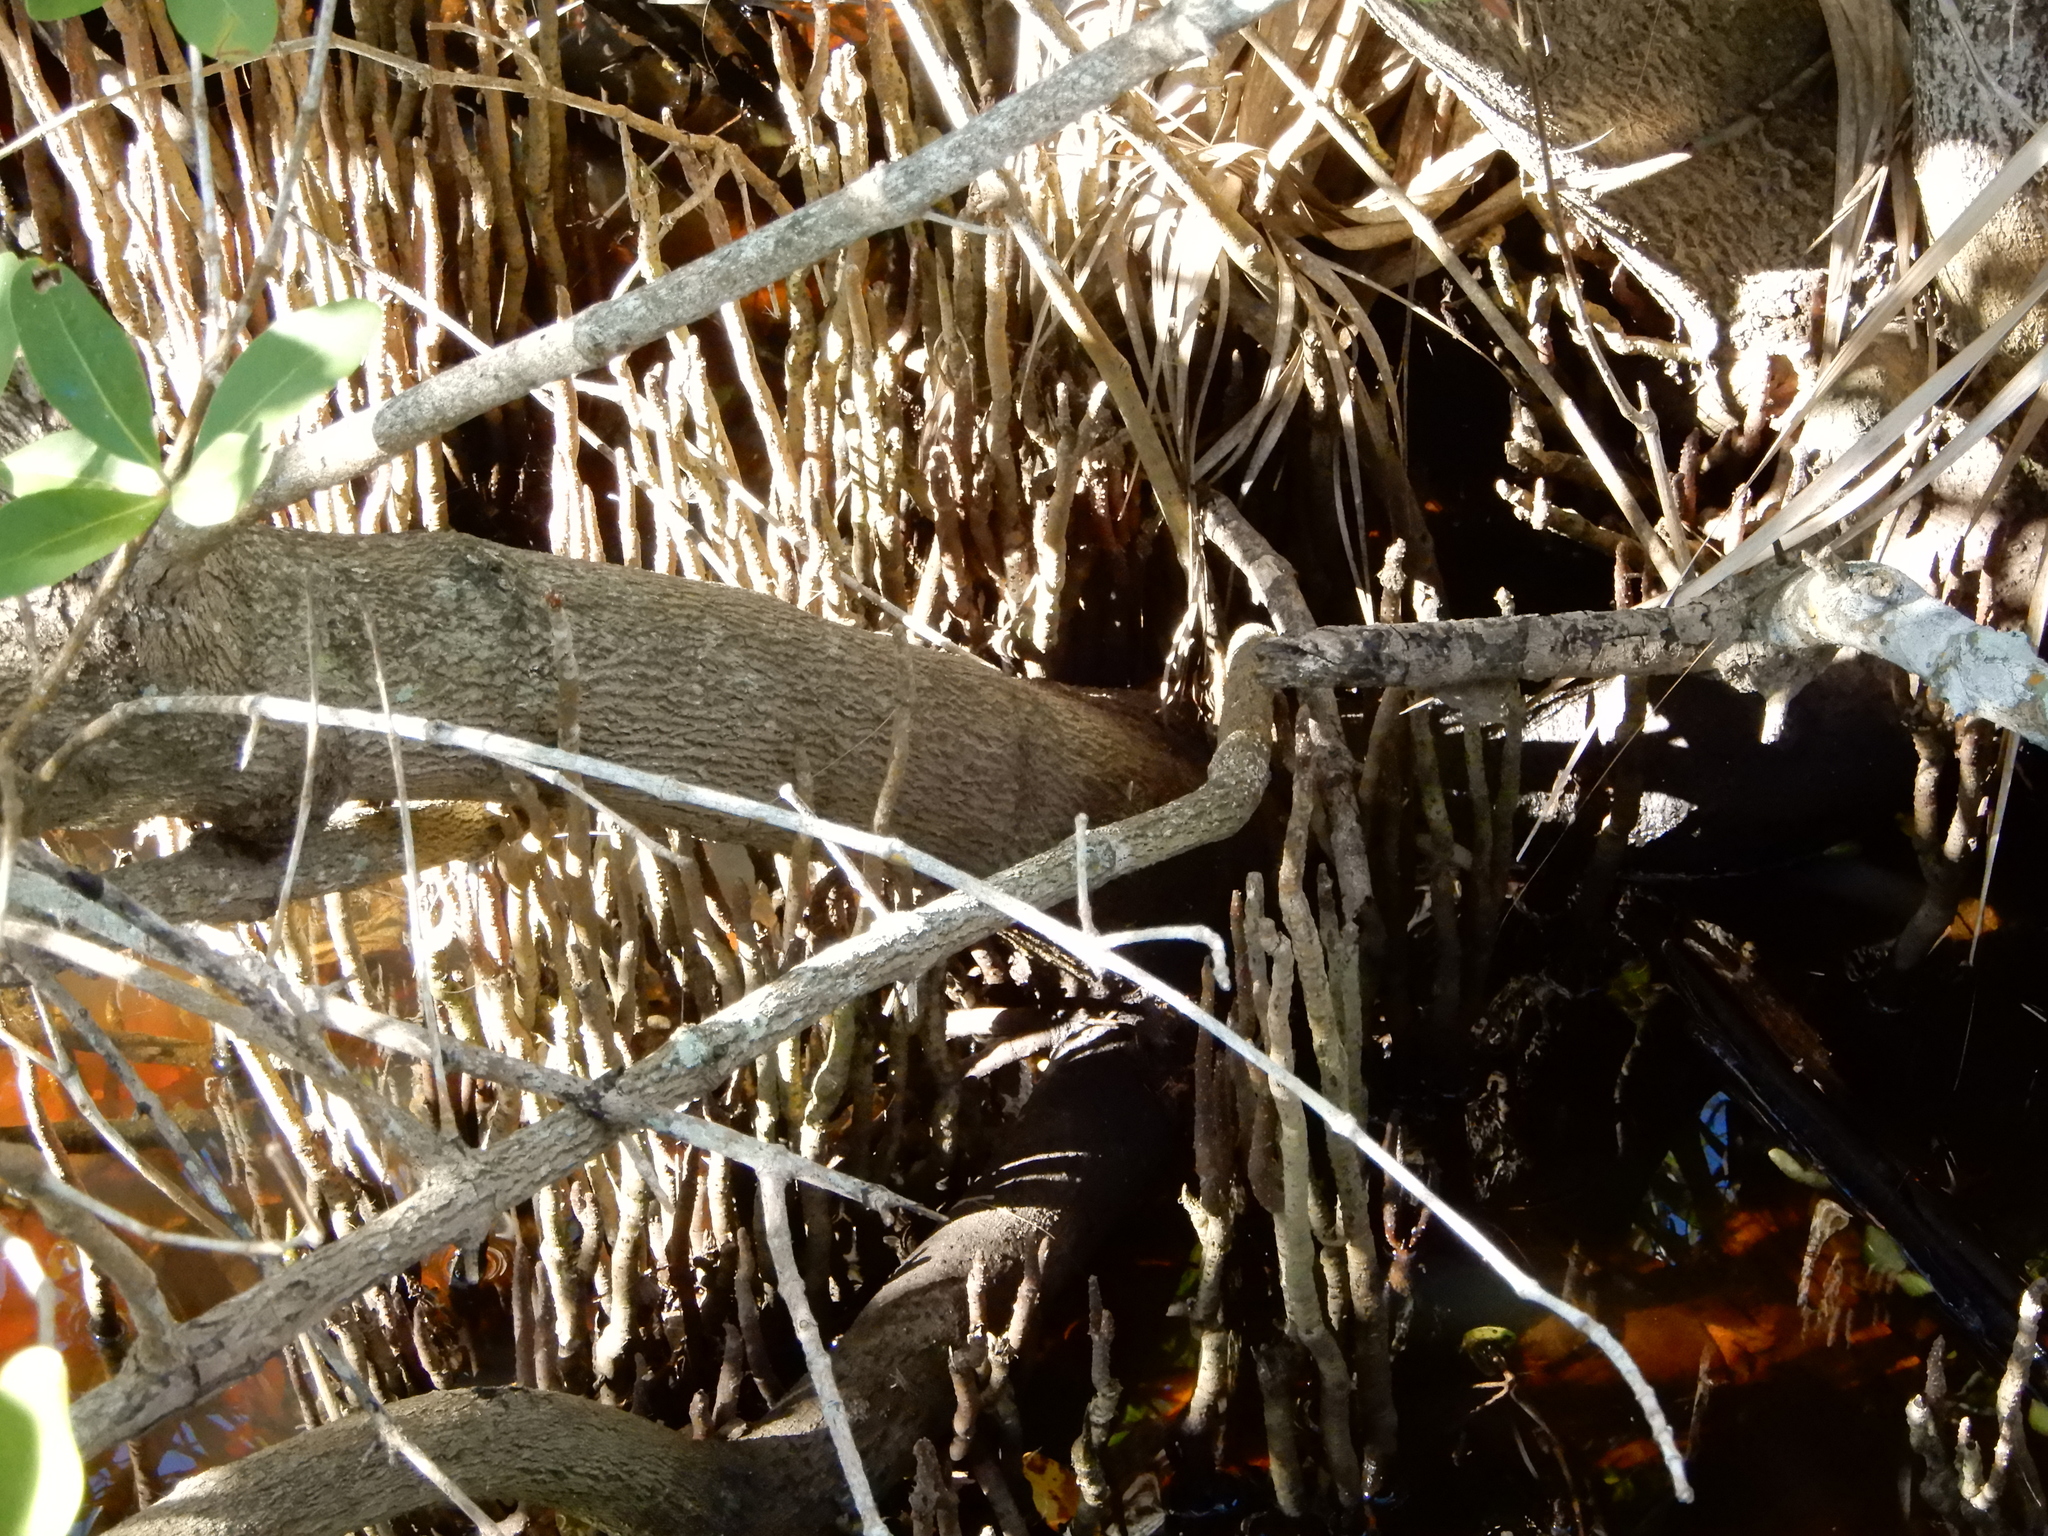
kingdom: Plantae
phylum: Tracheophyta
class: Magnoliopsida
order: Lamiales
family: Acanthaceae
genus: Avicennia
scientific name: Avicennia germinans
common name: Black mangrove
